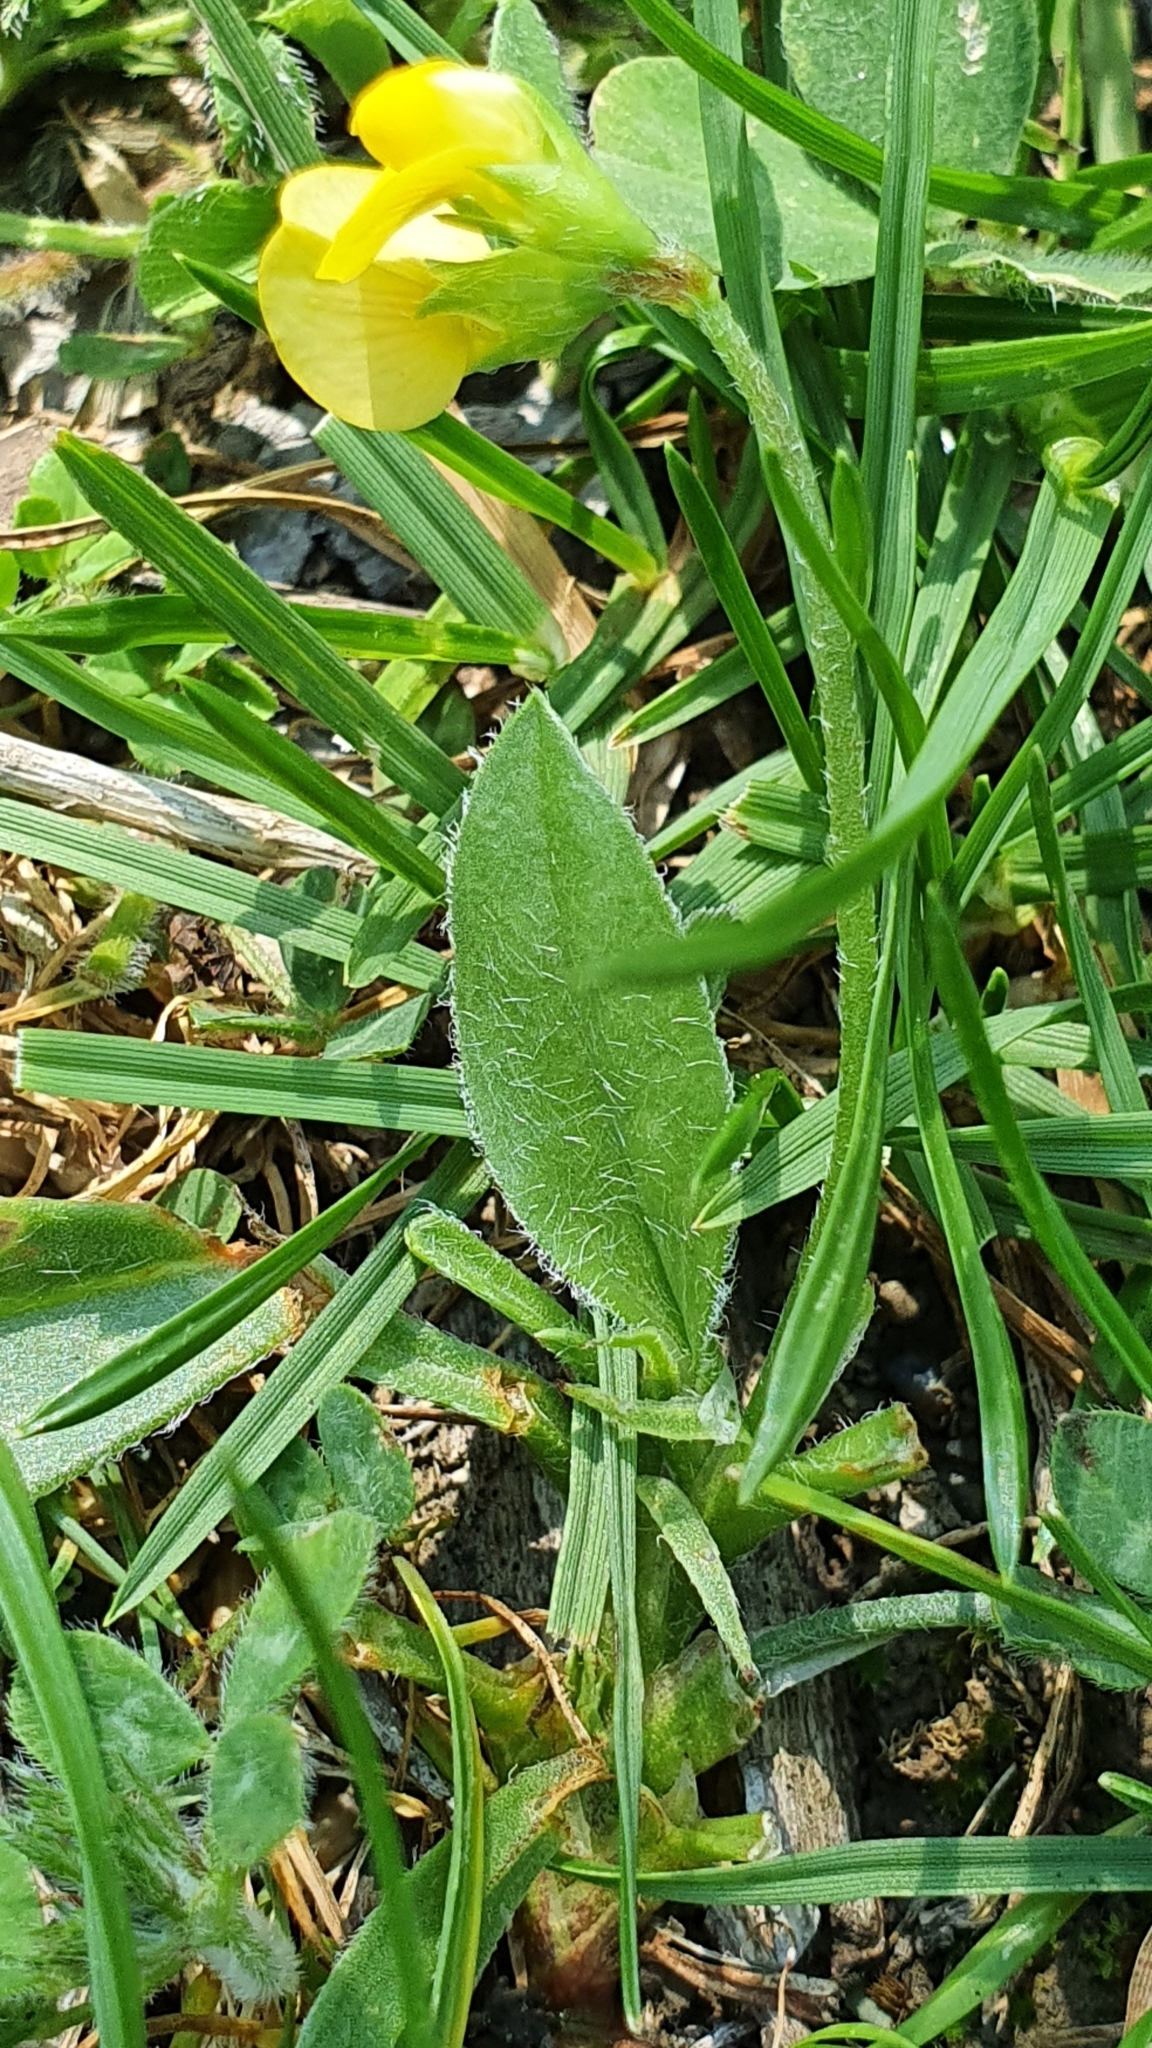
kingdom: Plantae
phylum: Tracheophyta
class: Magnoliopsida
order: Fabales
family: Fabaceae
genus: Scorpiurus
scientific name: Scorpiurus muricatus
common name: Caterpillar-plant
